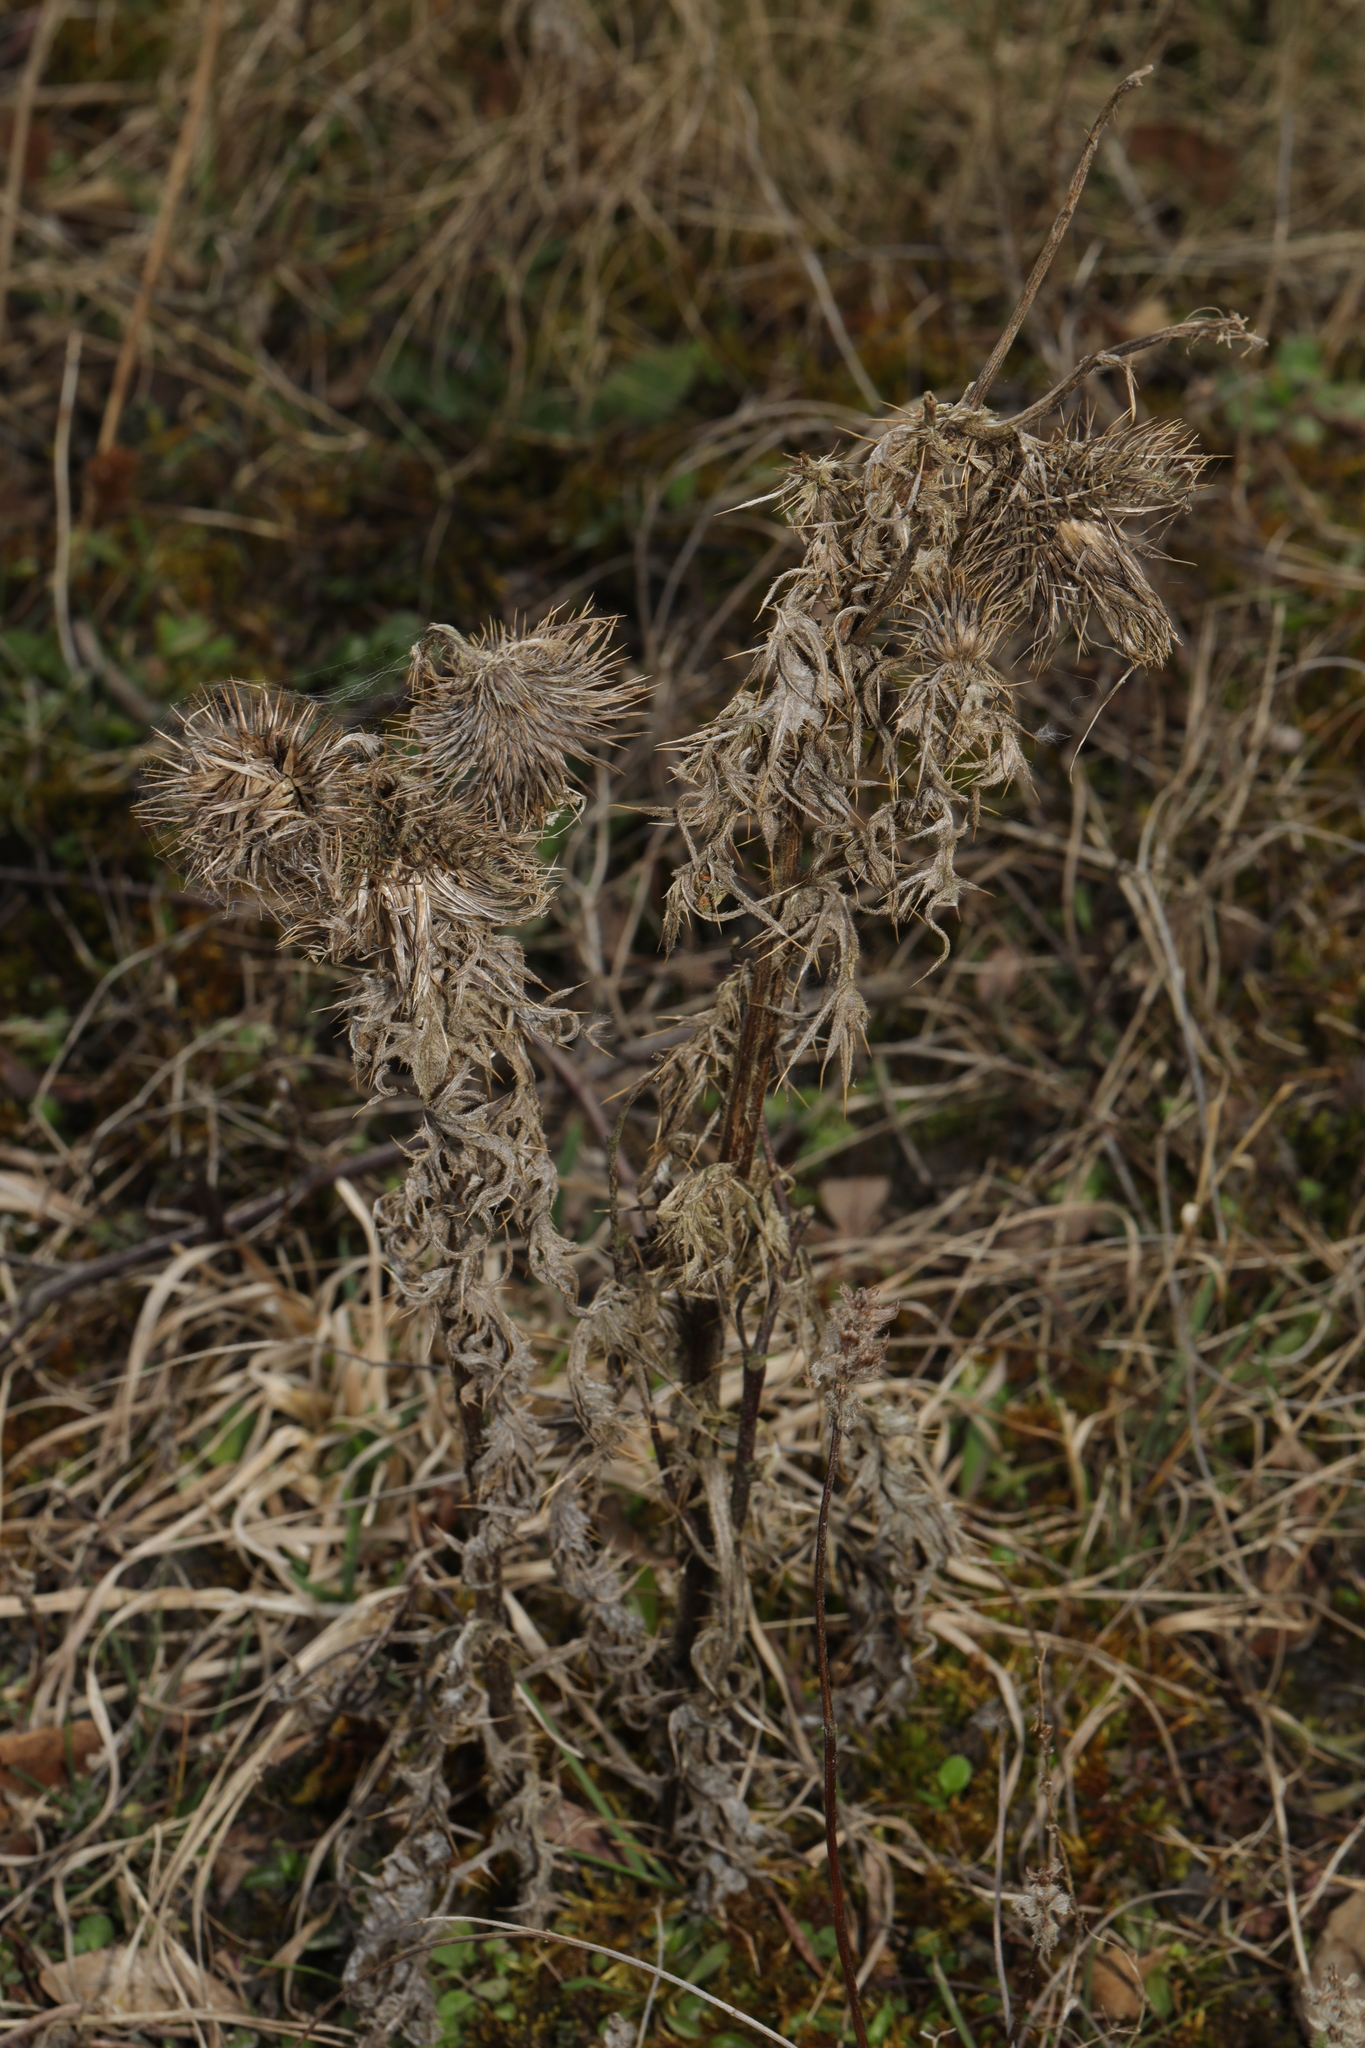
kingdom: Plantae
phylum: Tracheophyta
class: Magnoliopsida
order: Asterales
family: Asteraceae
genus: Cirsium
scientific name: Cirsium vulgare
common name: Bull thistle
